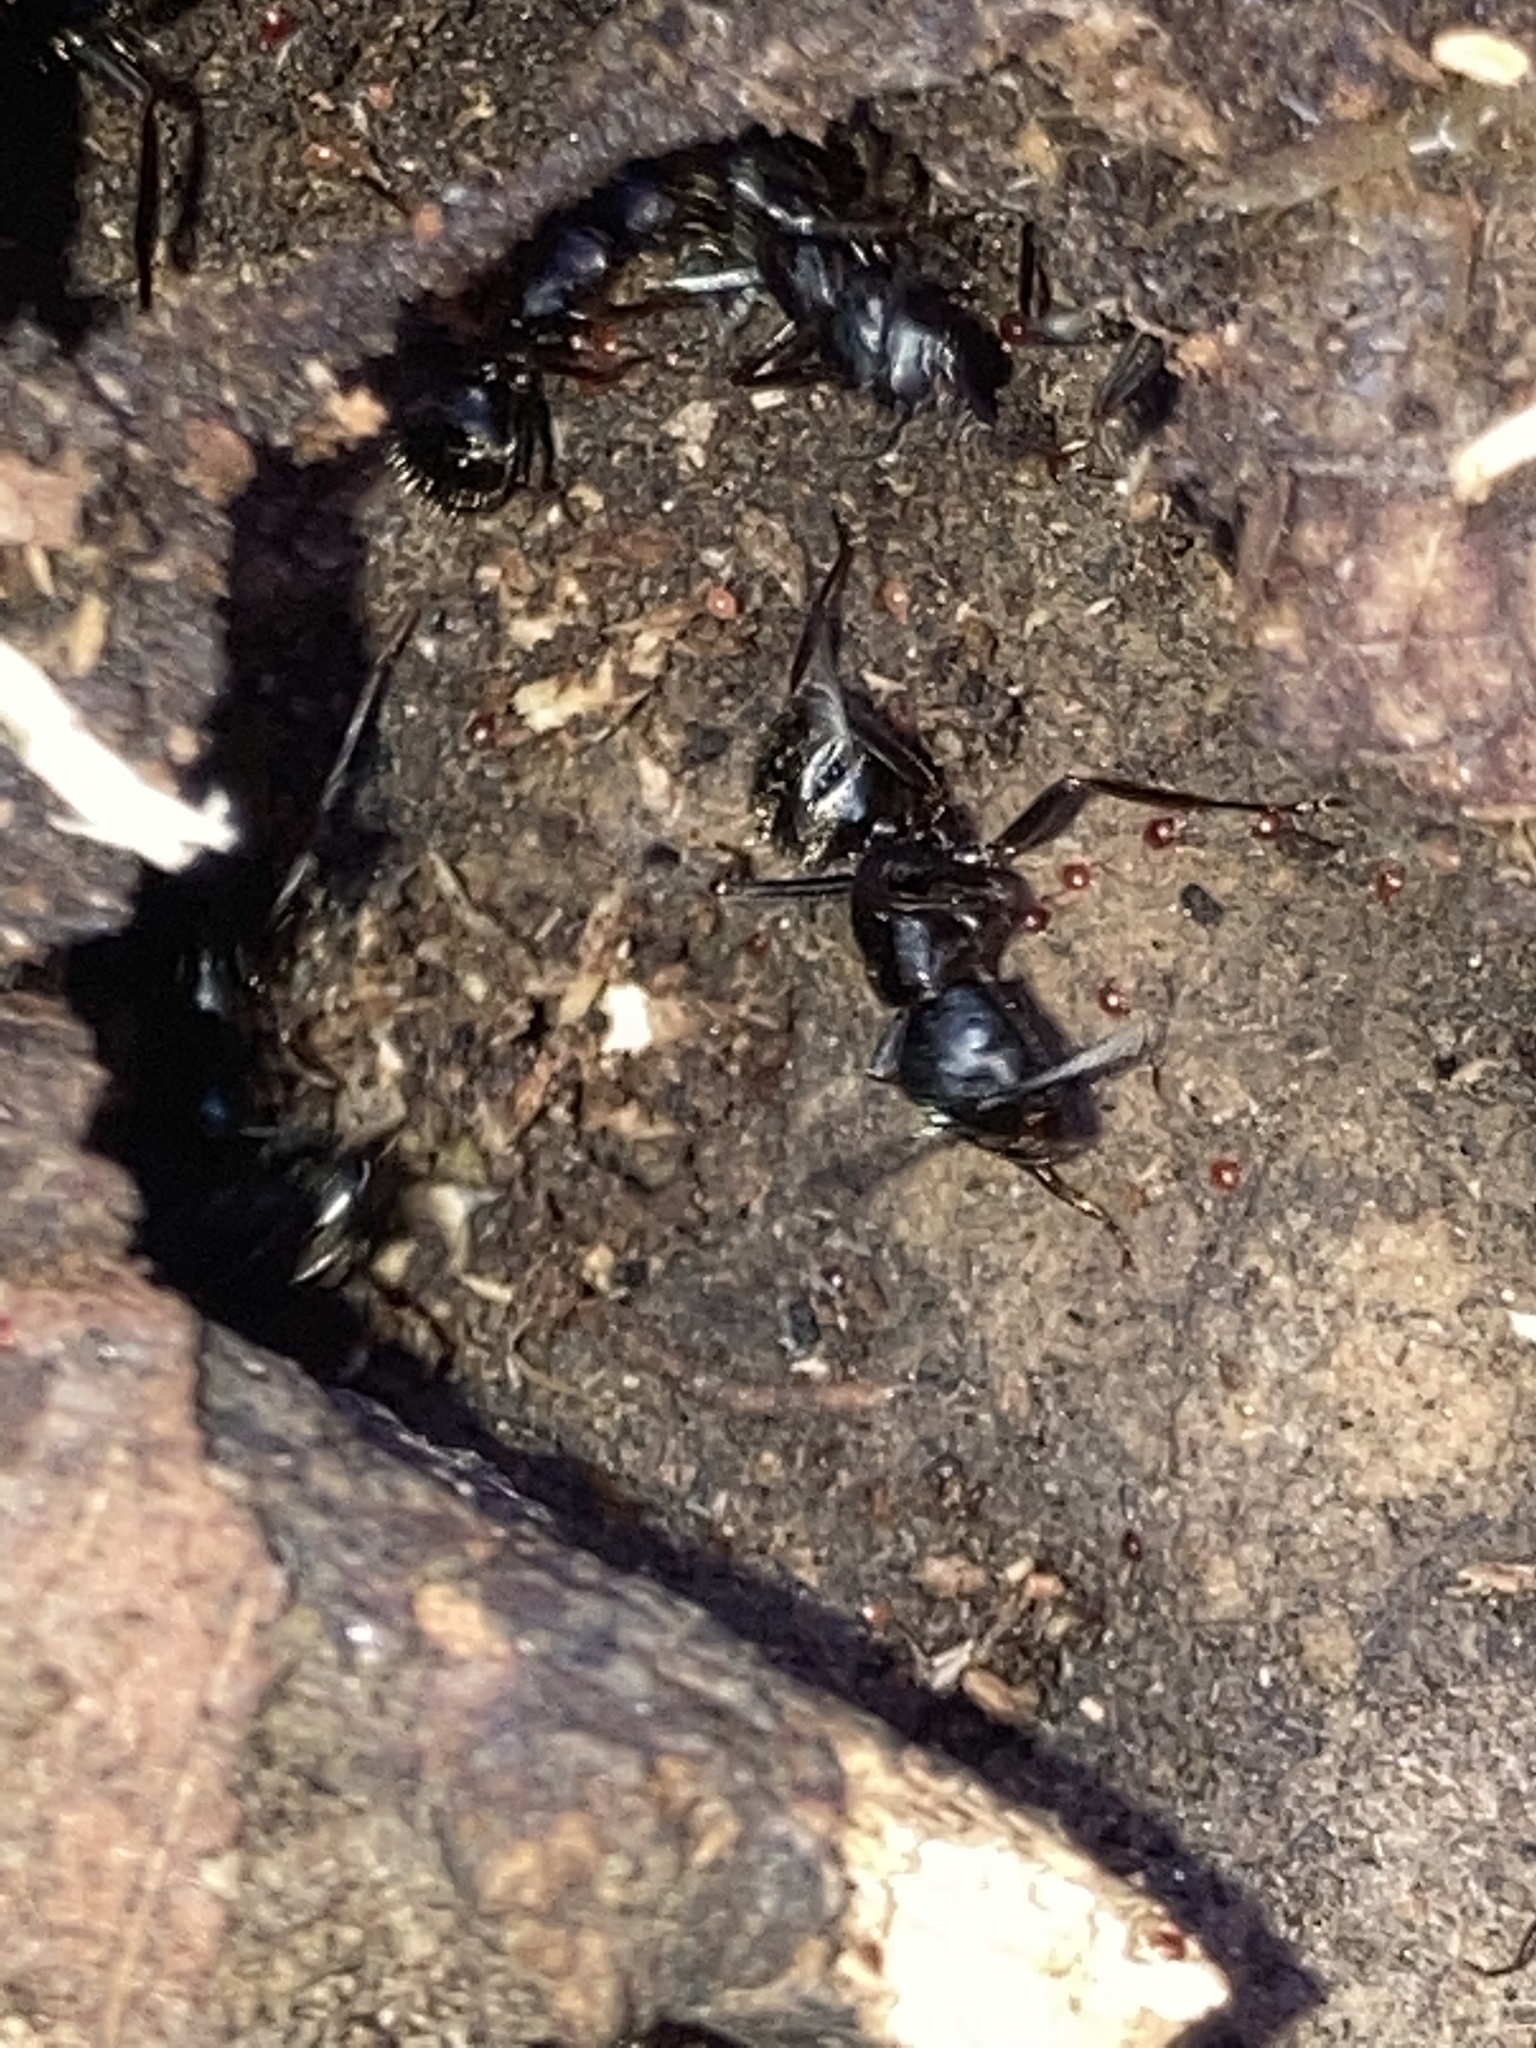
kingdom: Animalia
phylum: Arthropoda
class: Insecta
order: Hymenoptera
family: Formicidae
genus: Camponotus
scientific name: Camponotus pennsylvanicus
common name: Black carpenter ant
